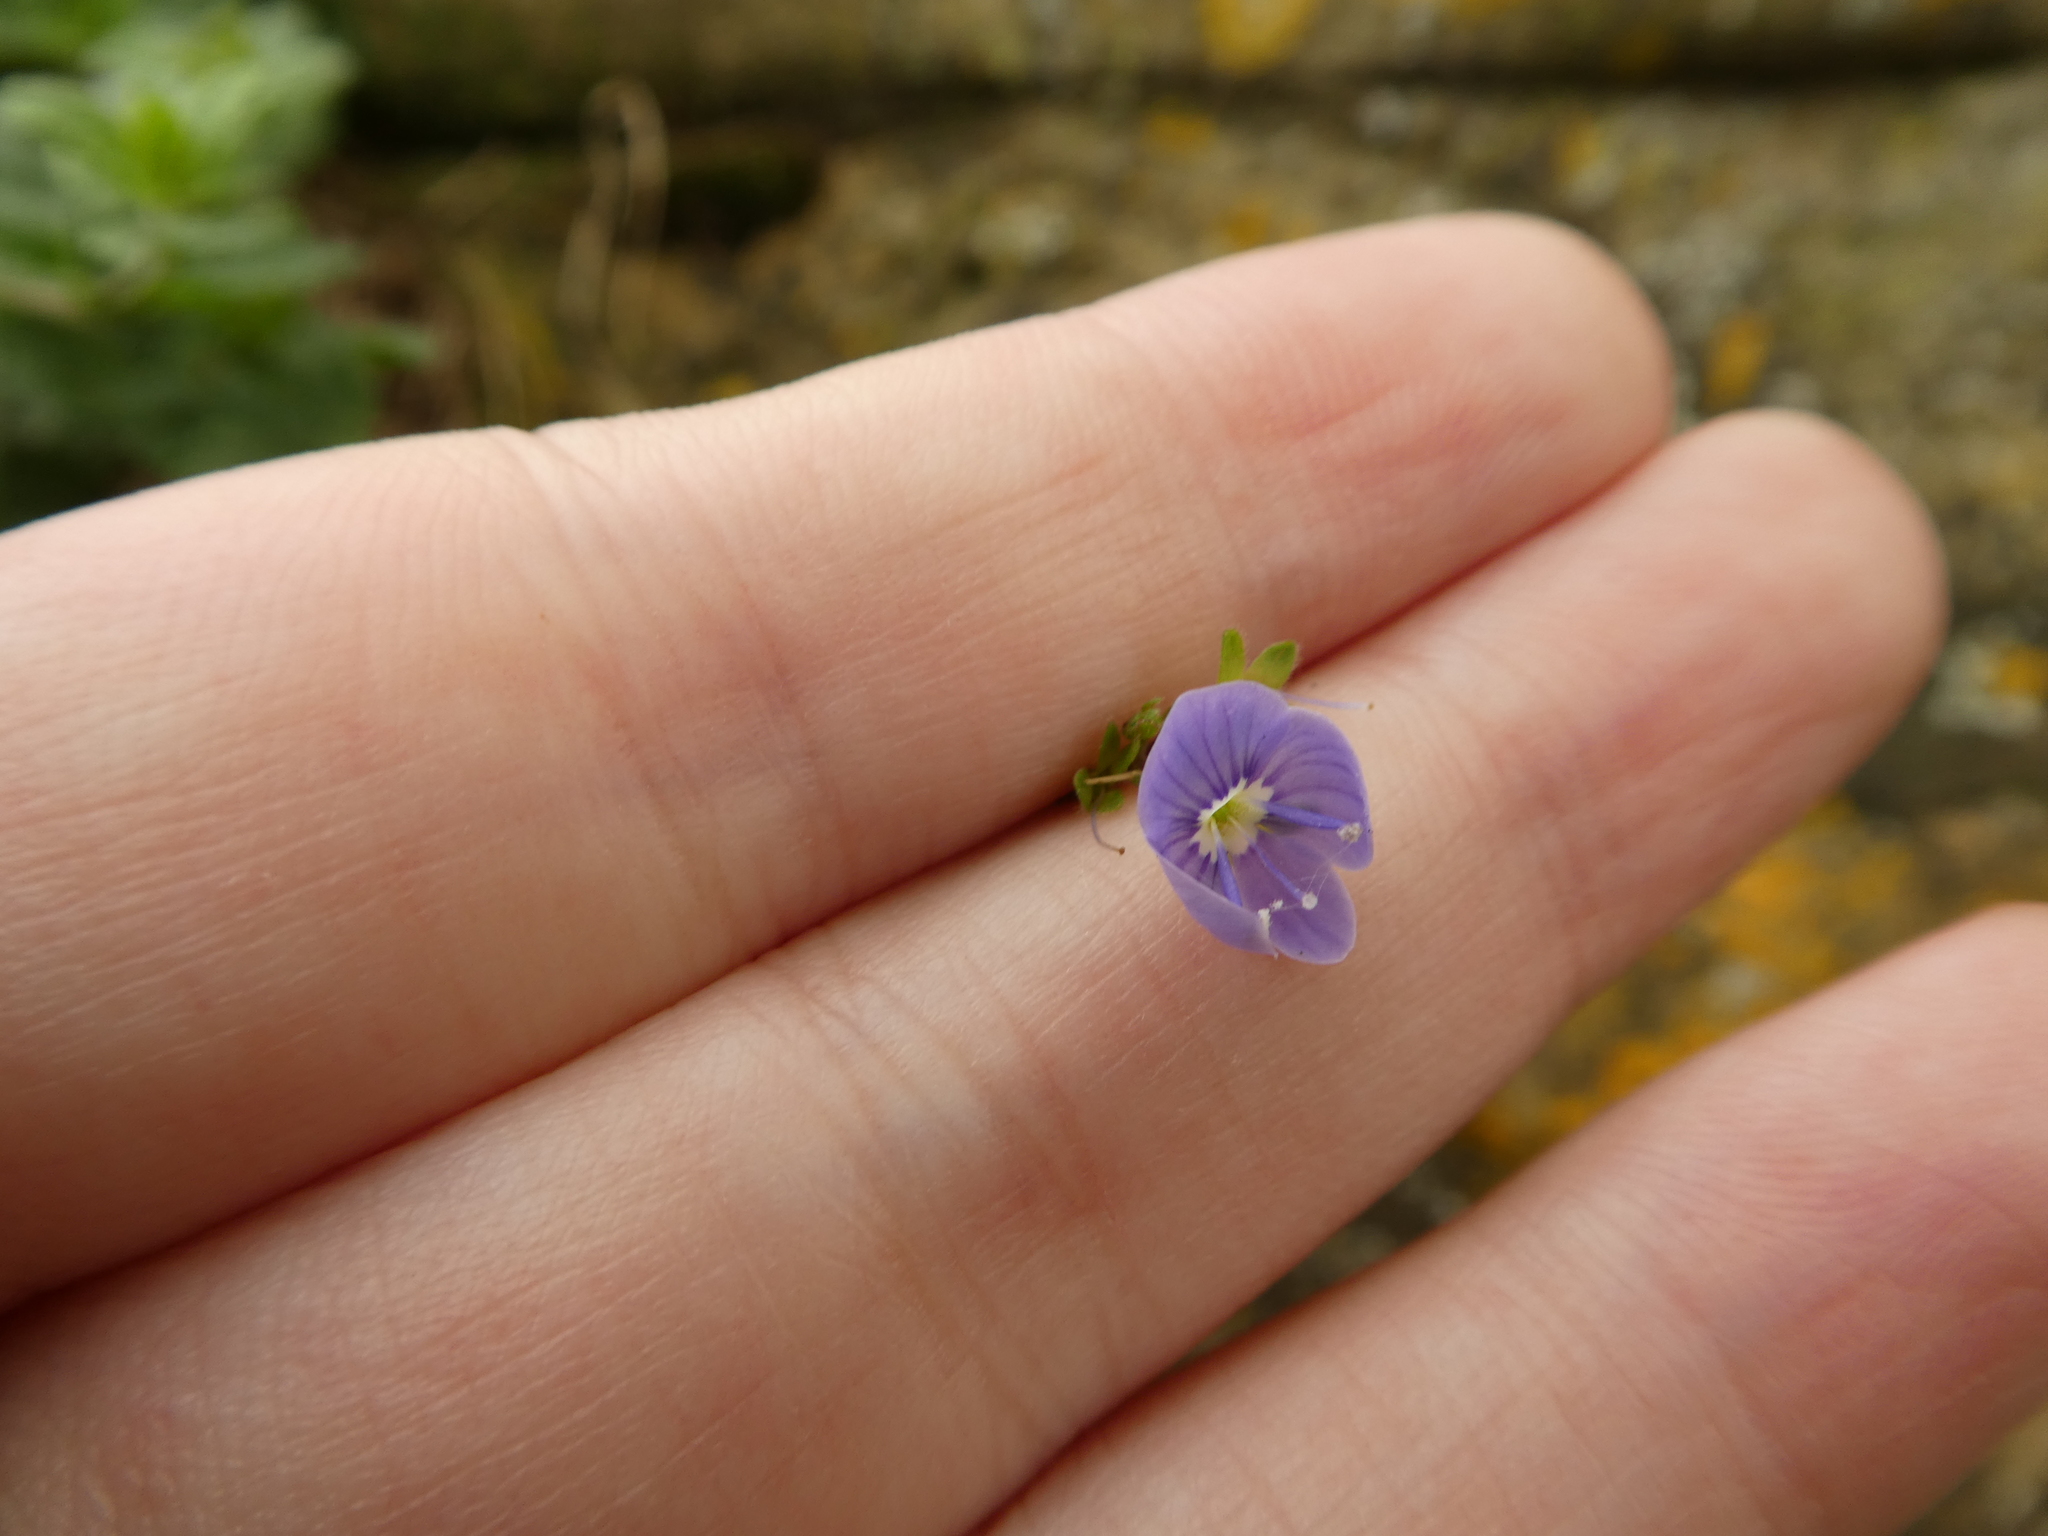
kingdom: Plantae
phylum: Tracheophyta
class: Magnoliopsida
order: Lamiales
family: Plantaginaceae
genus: Veronica
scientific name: Veronica chamaedrys
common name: Germander speedwell
